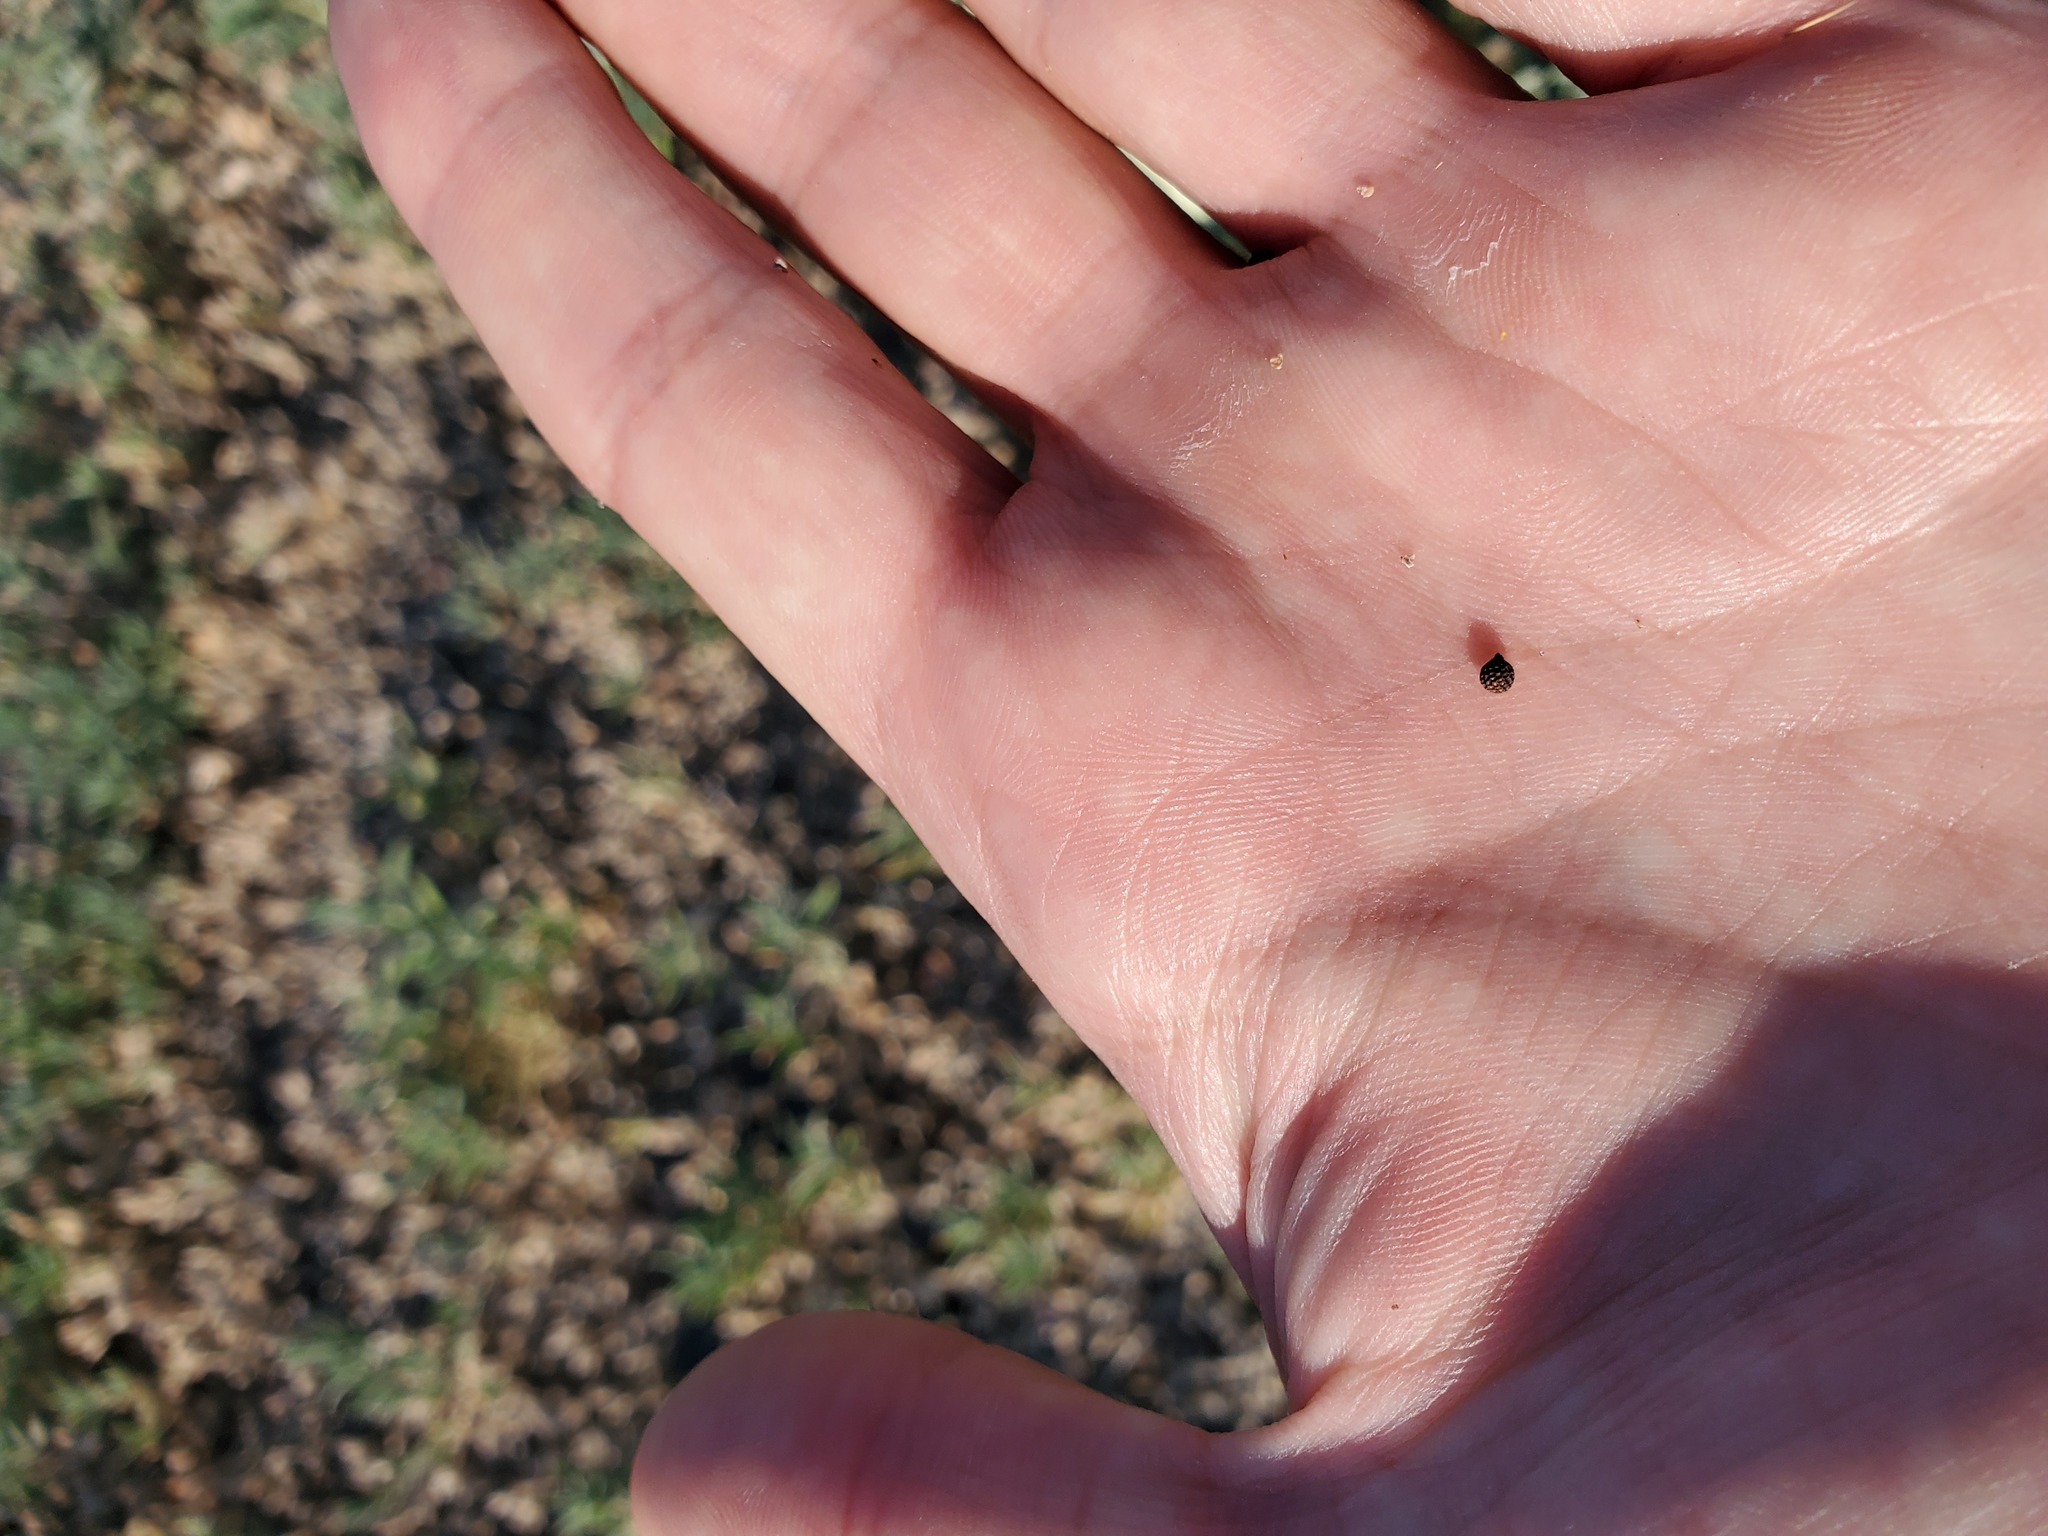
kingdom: Plantae
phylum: Tracheophyta
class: Magnoliopsida
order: Ranunculales
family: Papaveraceae
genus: Argemone
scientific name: Argemone polyanthemos
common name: Plains prickly-poppy
